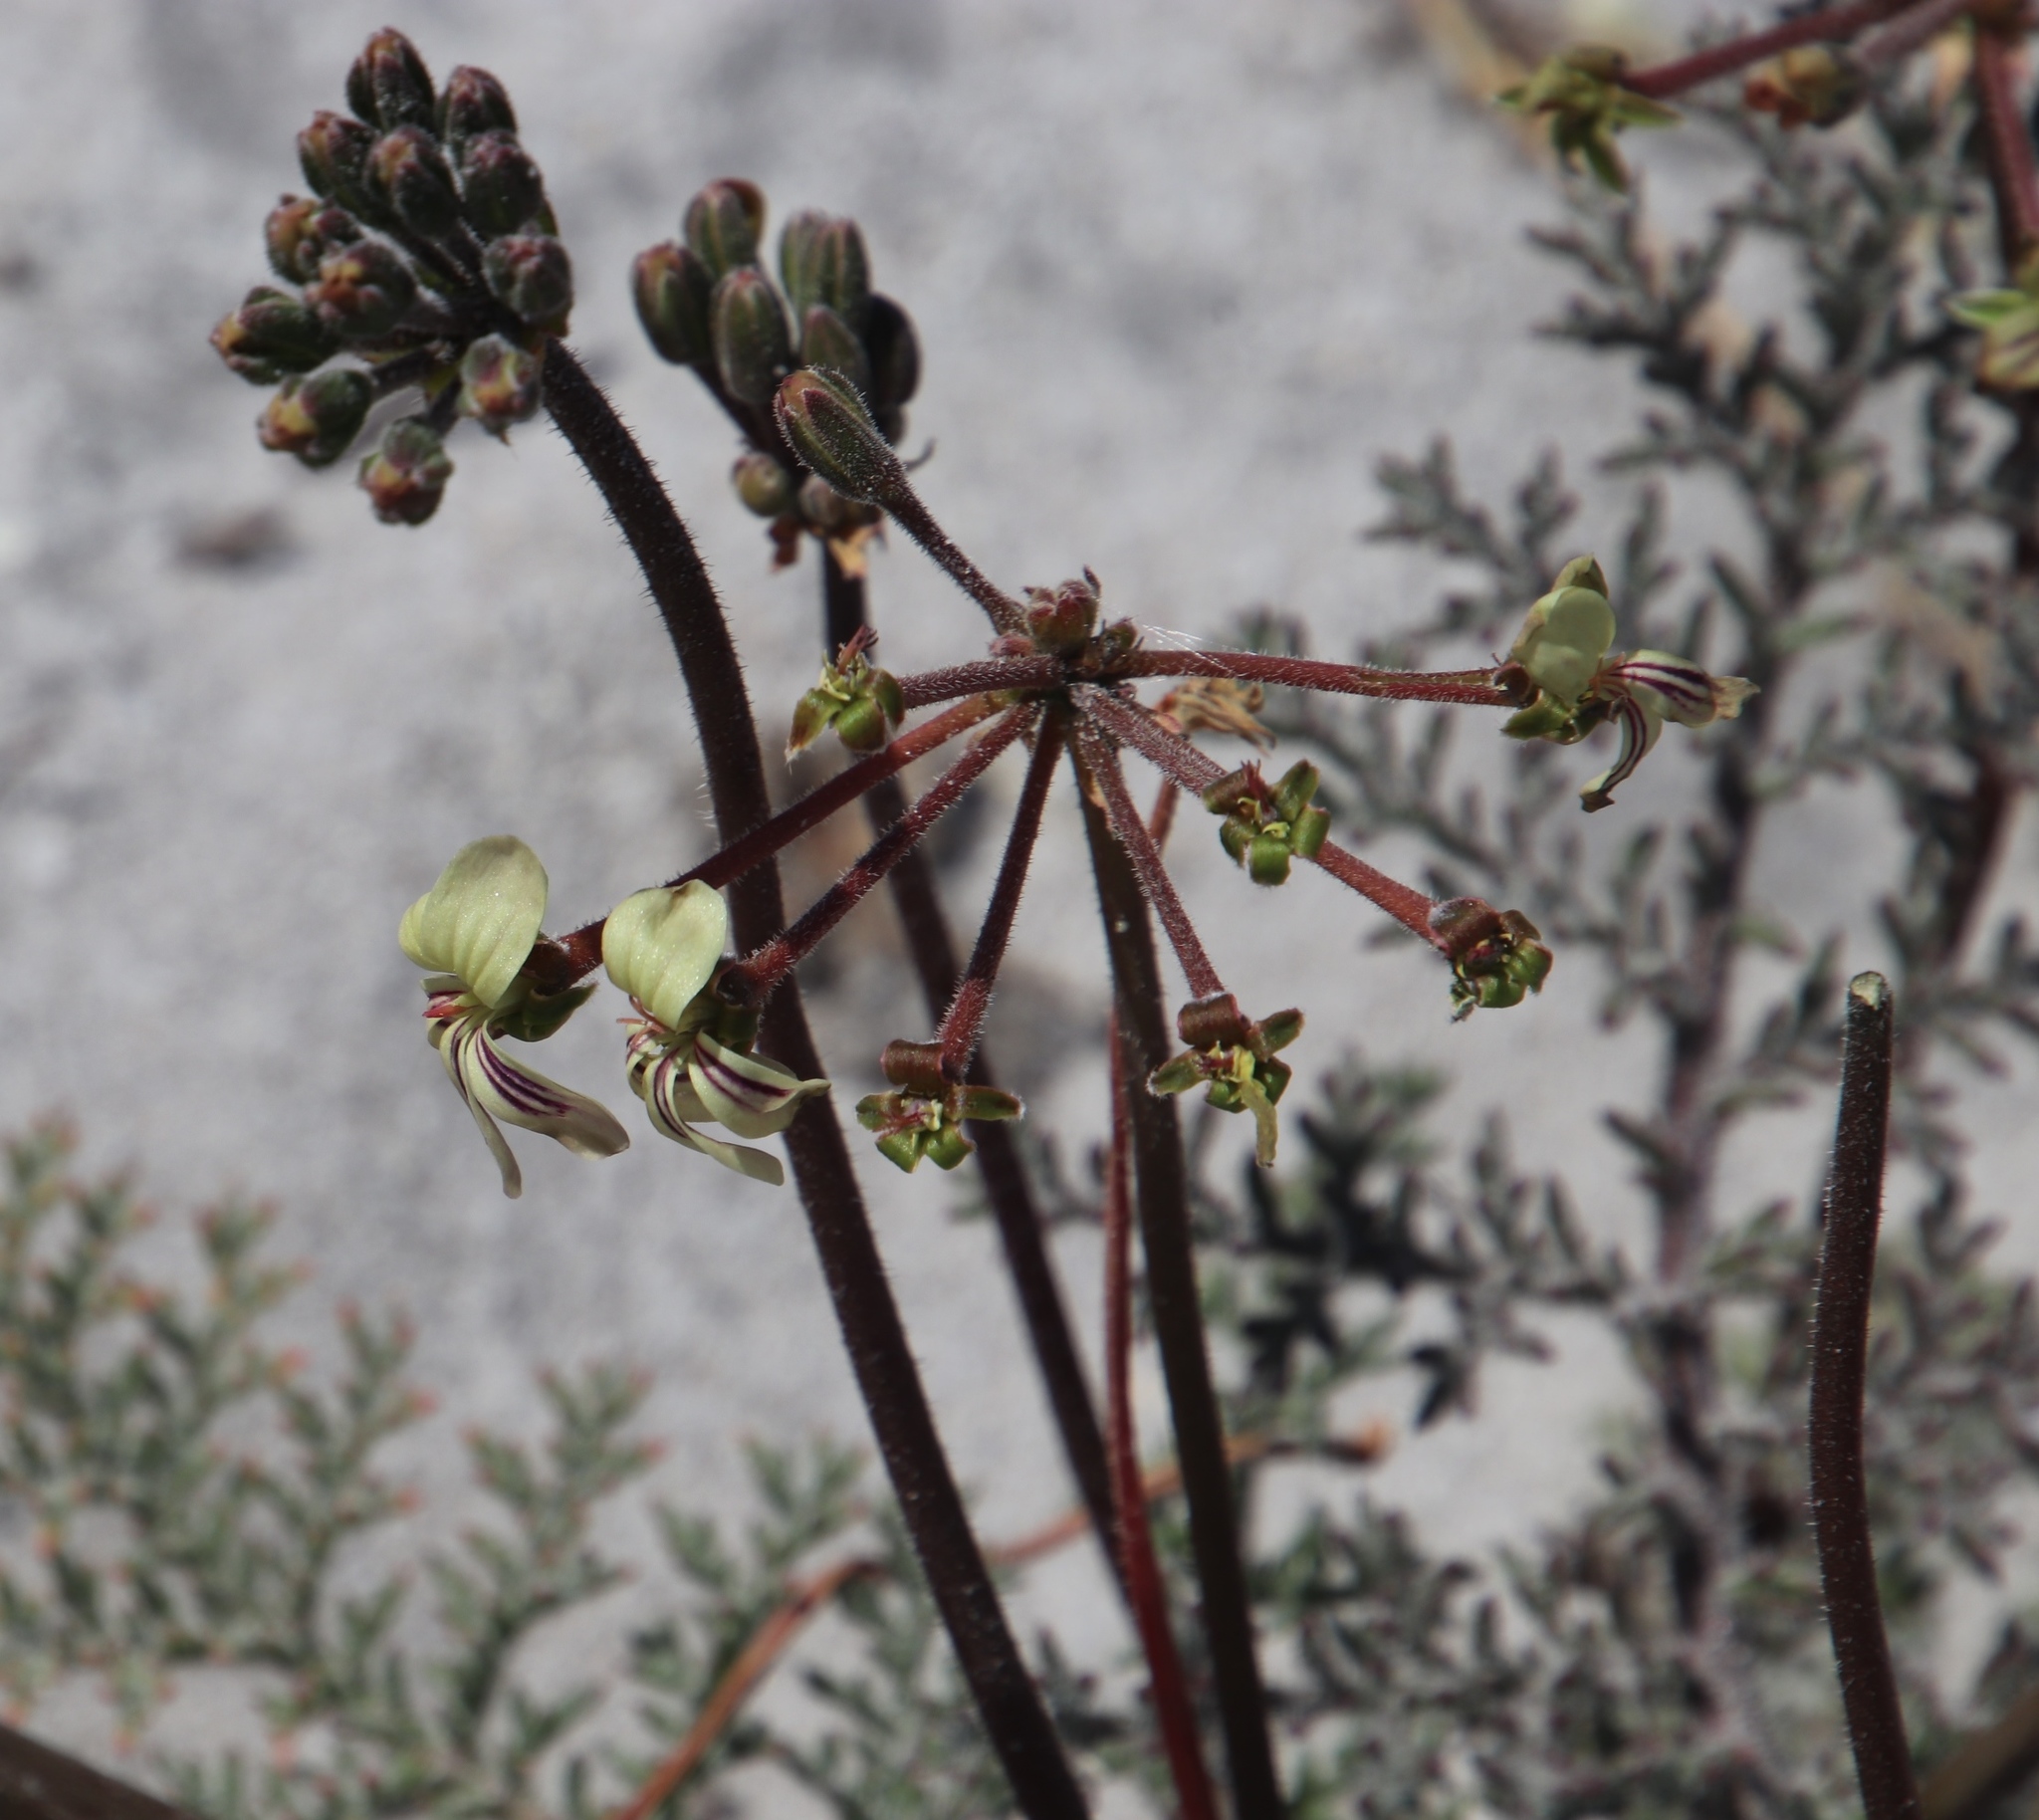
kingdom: Plantae
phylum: Tracheophyta
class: Magnoliopsida
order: Geraniales
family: Geraniaceae
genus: Pelargonium
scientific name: Pelargonium triste
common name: Night-scent pelargonium
